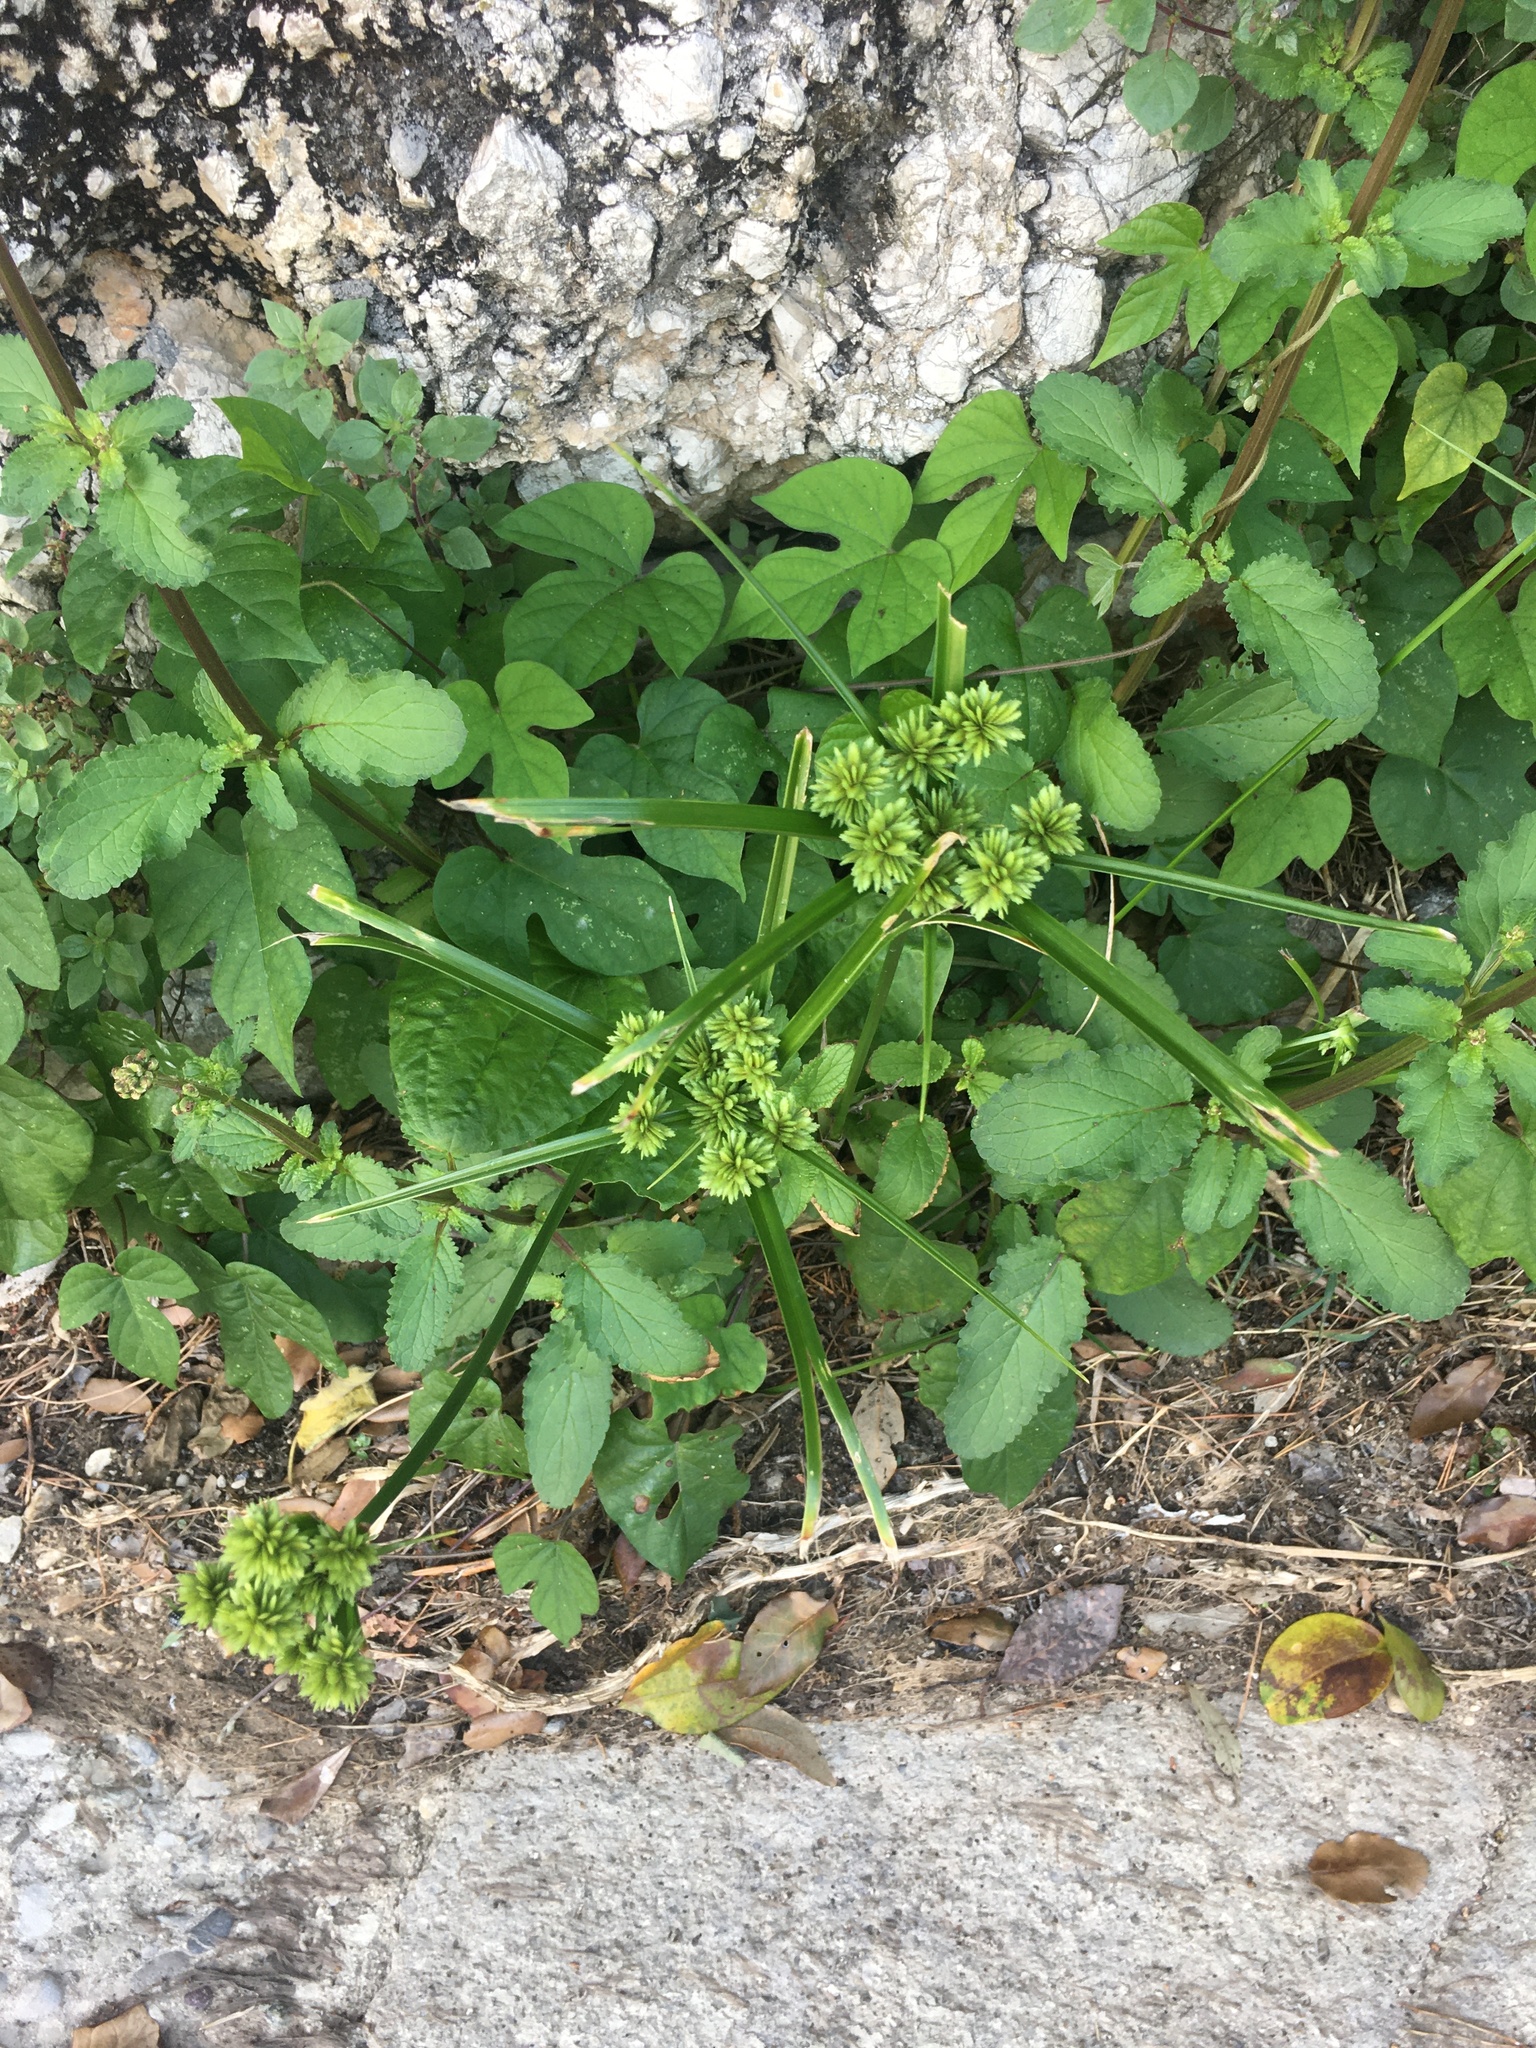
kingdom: Plantae
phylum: Tracheophyta
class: Liliopsida
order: Poales
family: Cyperaceae
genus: Cyperus
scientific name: Cyperus eragrostis
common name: Tall flatsedge
